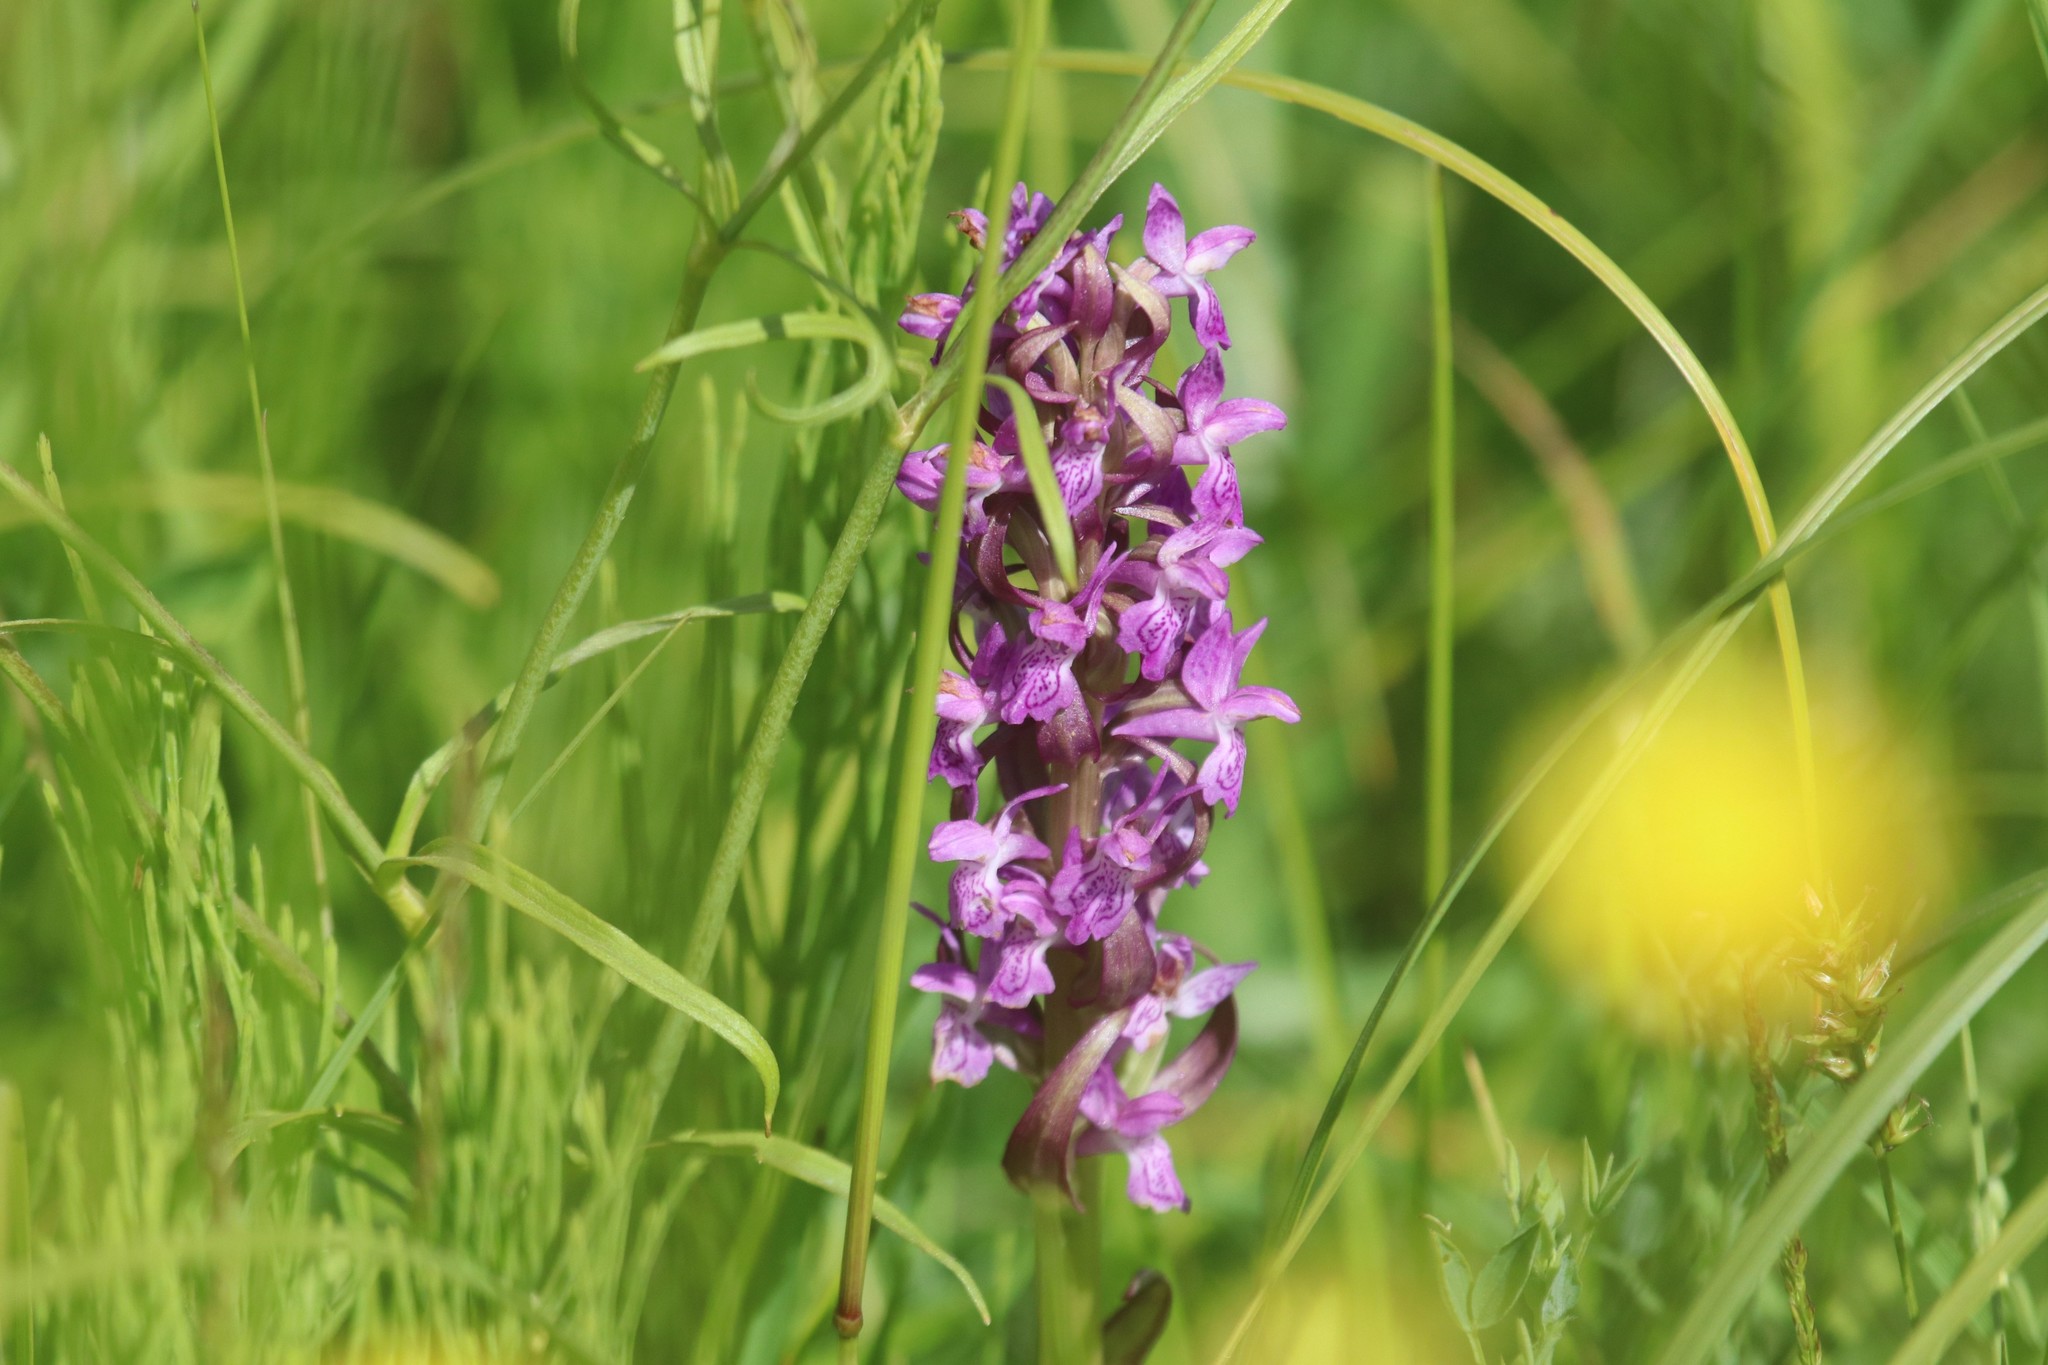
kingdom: Plantae
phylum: Tracheophyta
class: Liliopsida
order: Asparagales
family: Orchidaceae
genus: Dactylorhiza
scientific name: Dactylorhiza incarnata
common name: Early marsh-orchid
